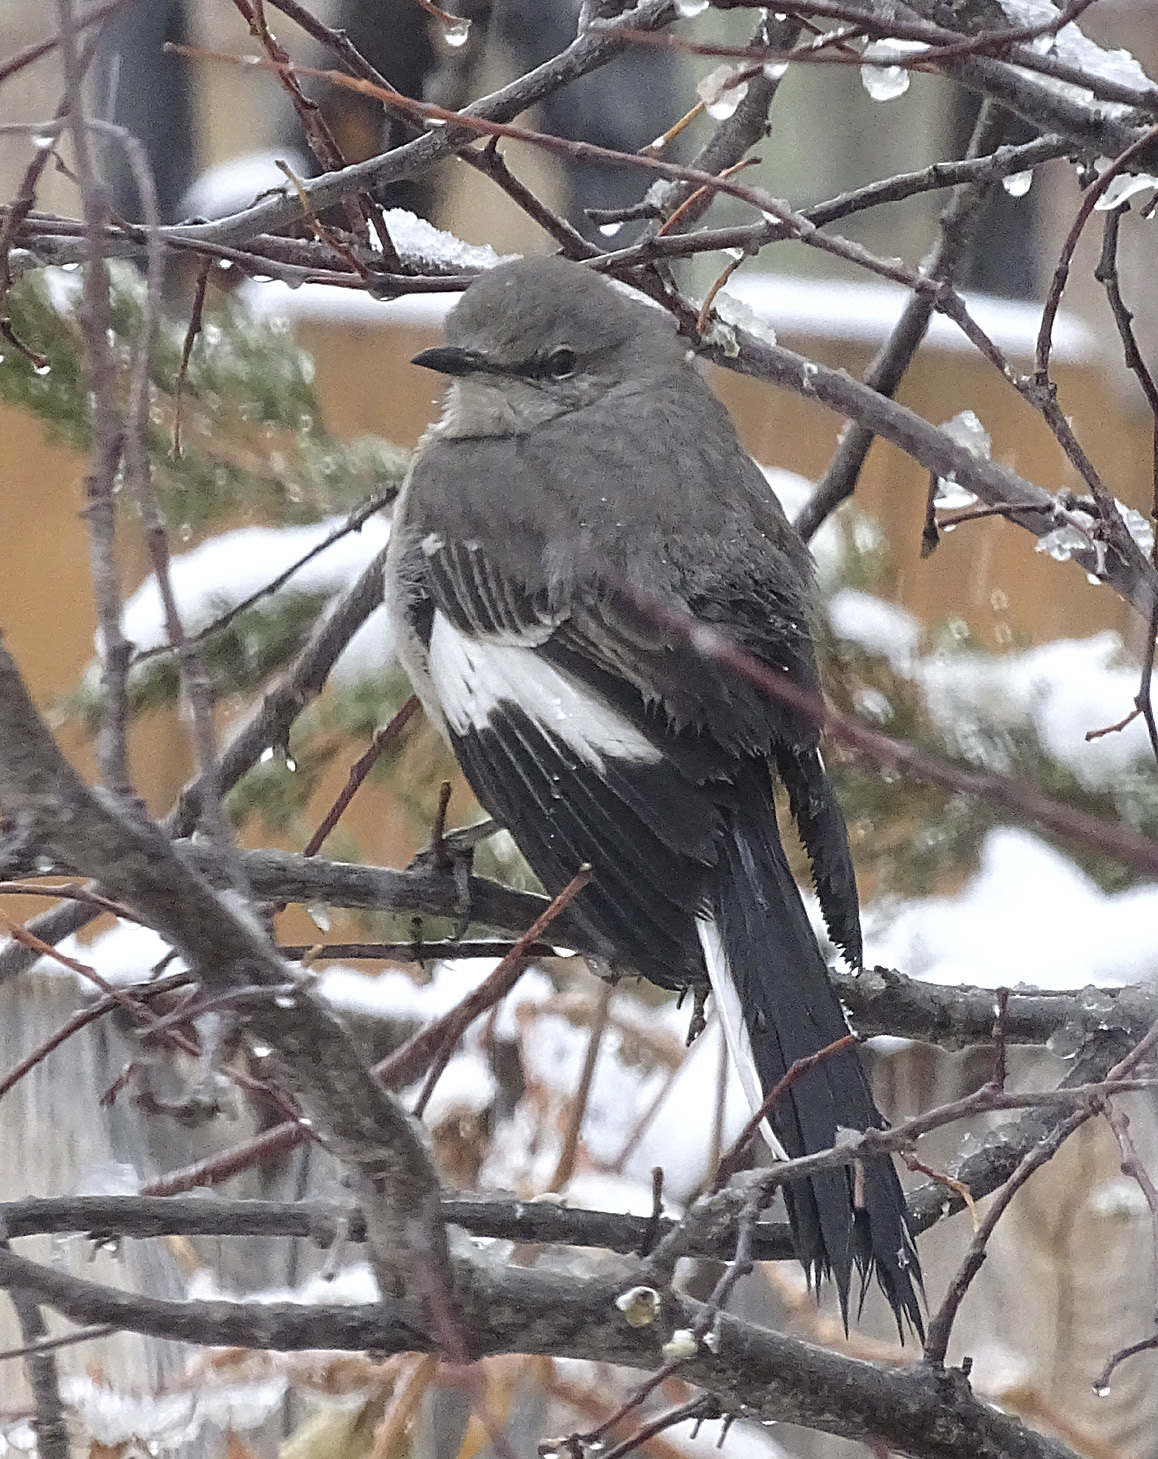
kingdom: Animalia
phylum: Chordata
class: Aves
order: Passeriformes
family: Mimidae
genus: Mimus
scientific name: Mimus polyglottos
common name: Northern mockingbird
